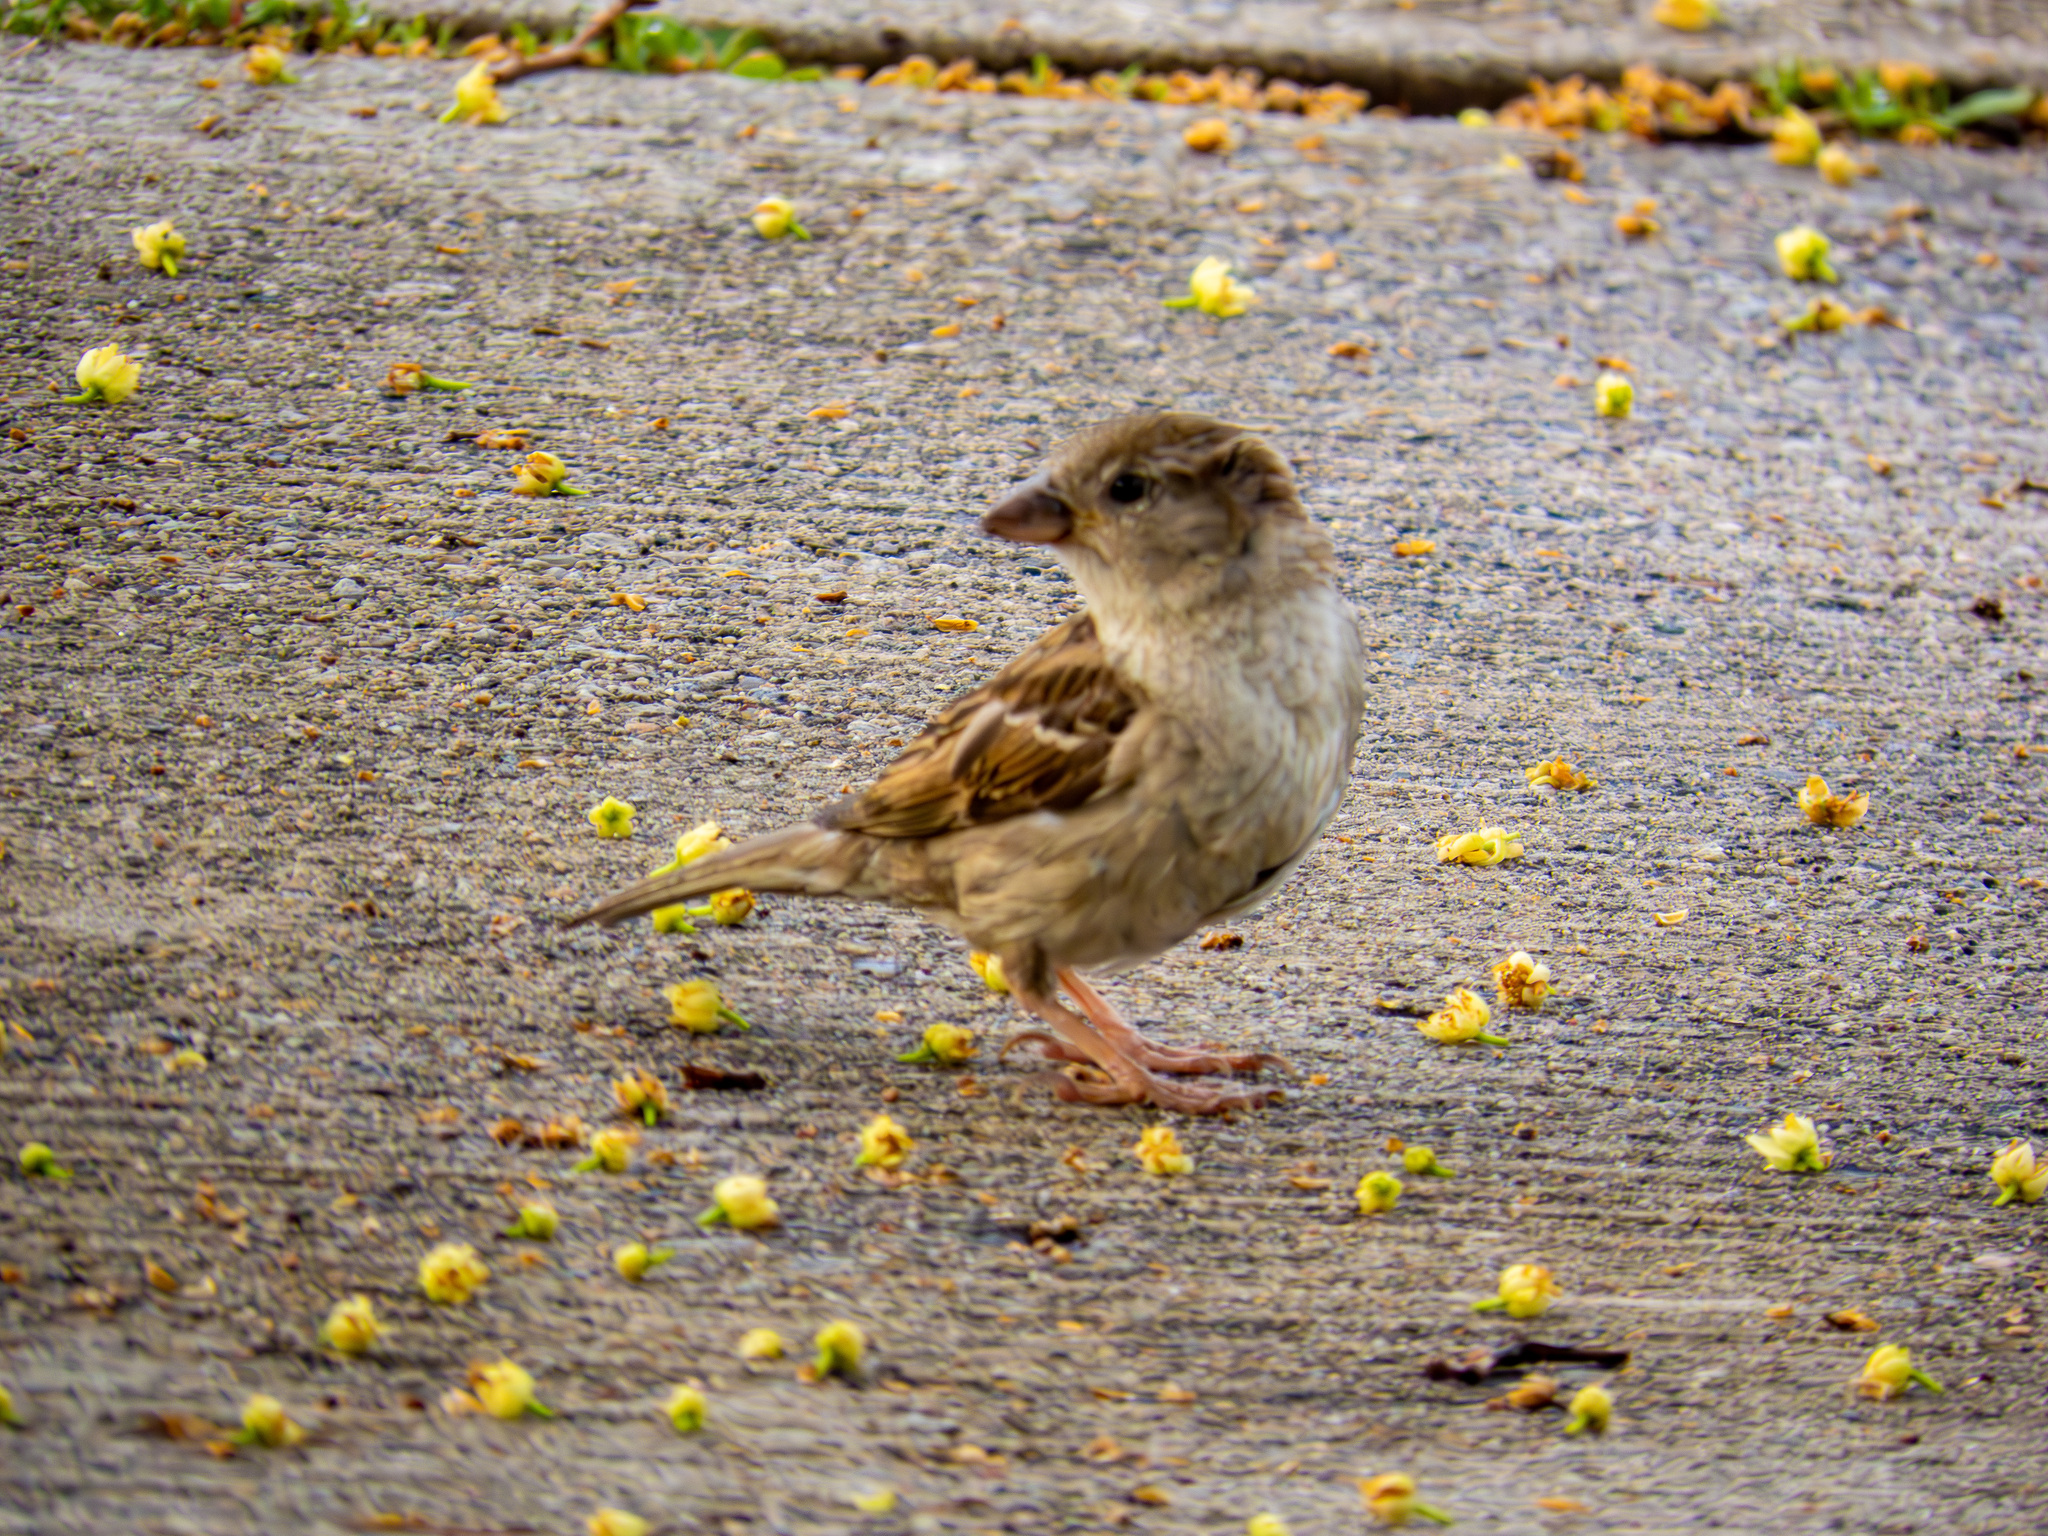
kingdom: Animalia
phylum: Chordata
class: Aves
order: Passeriformes
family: Passeridae
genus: Passer
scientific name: Passer domesticus
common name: House sparrow
